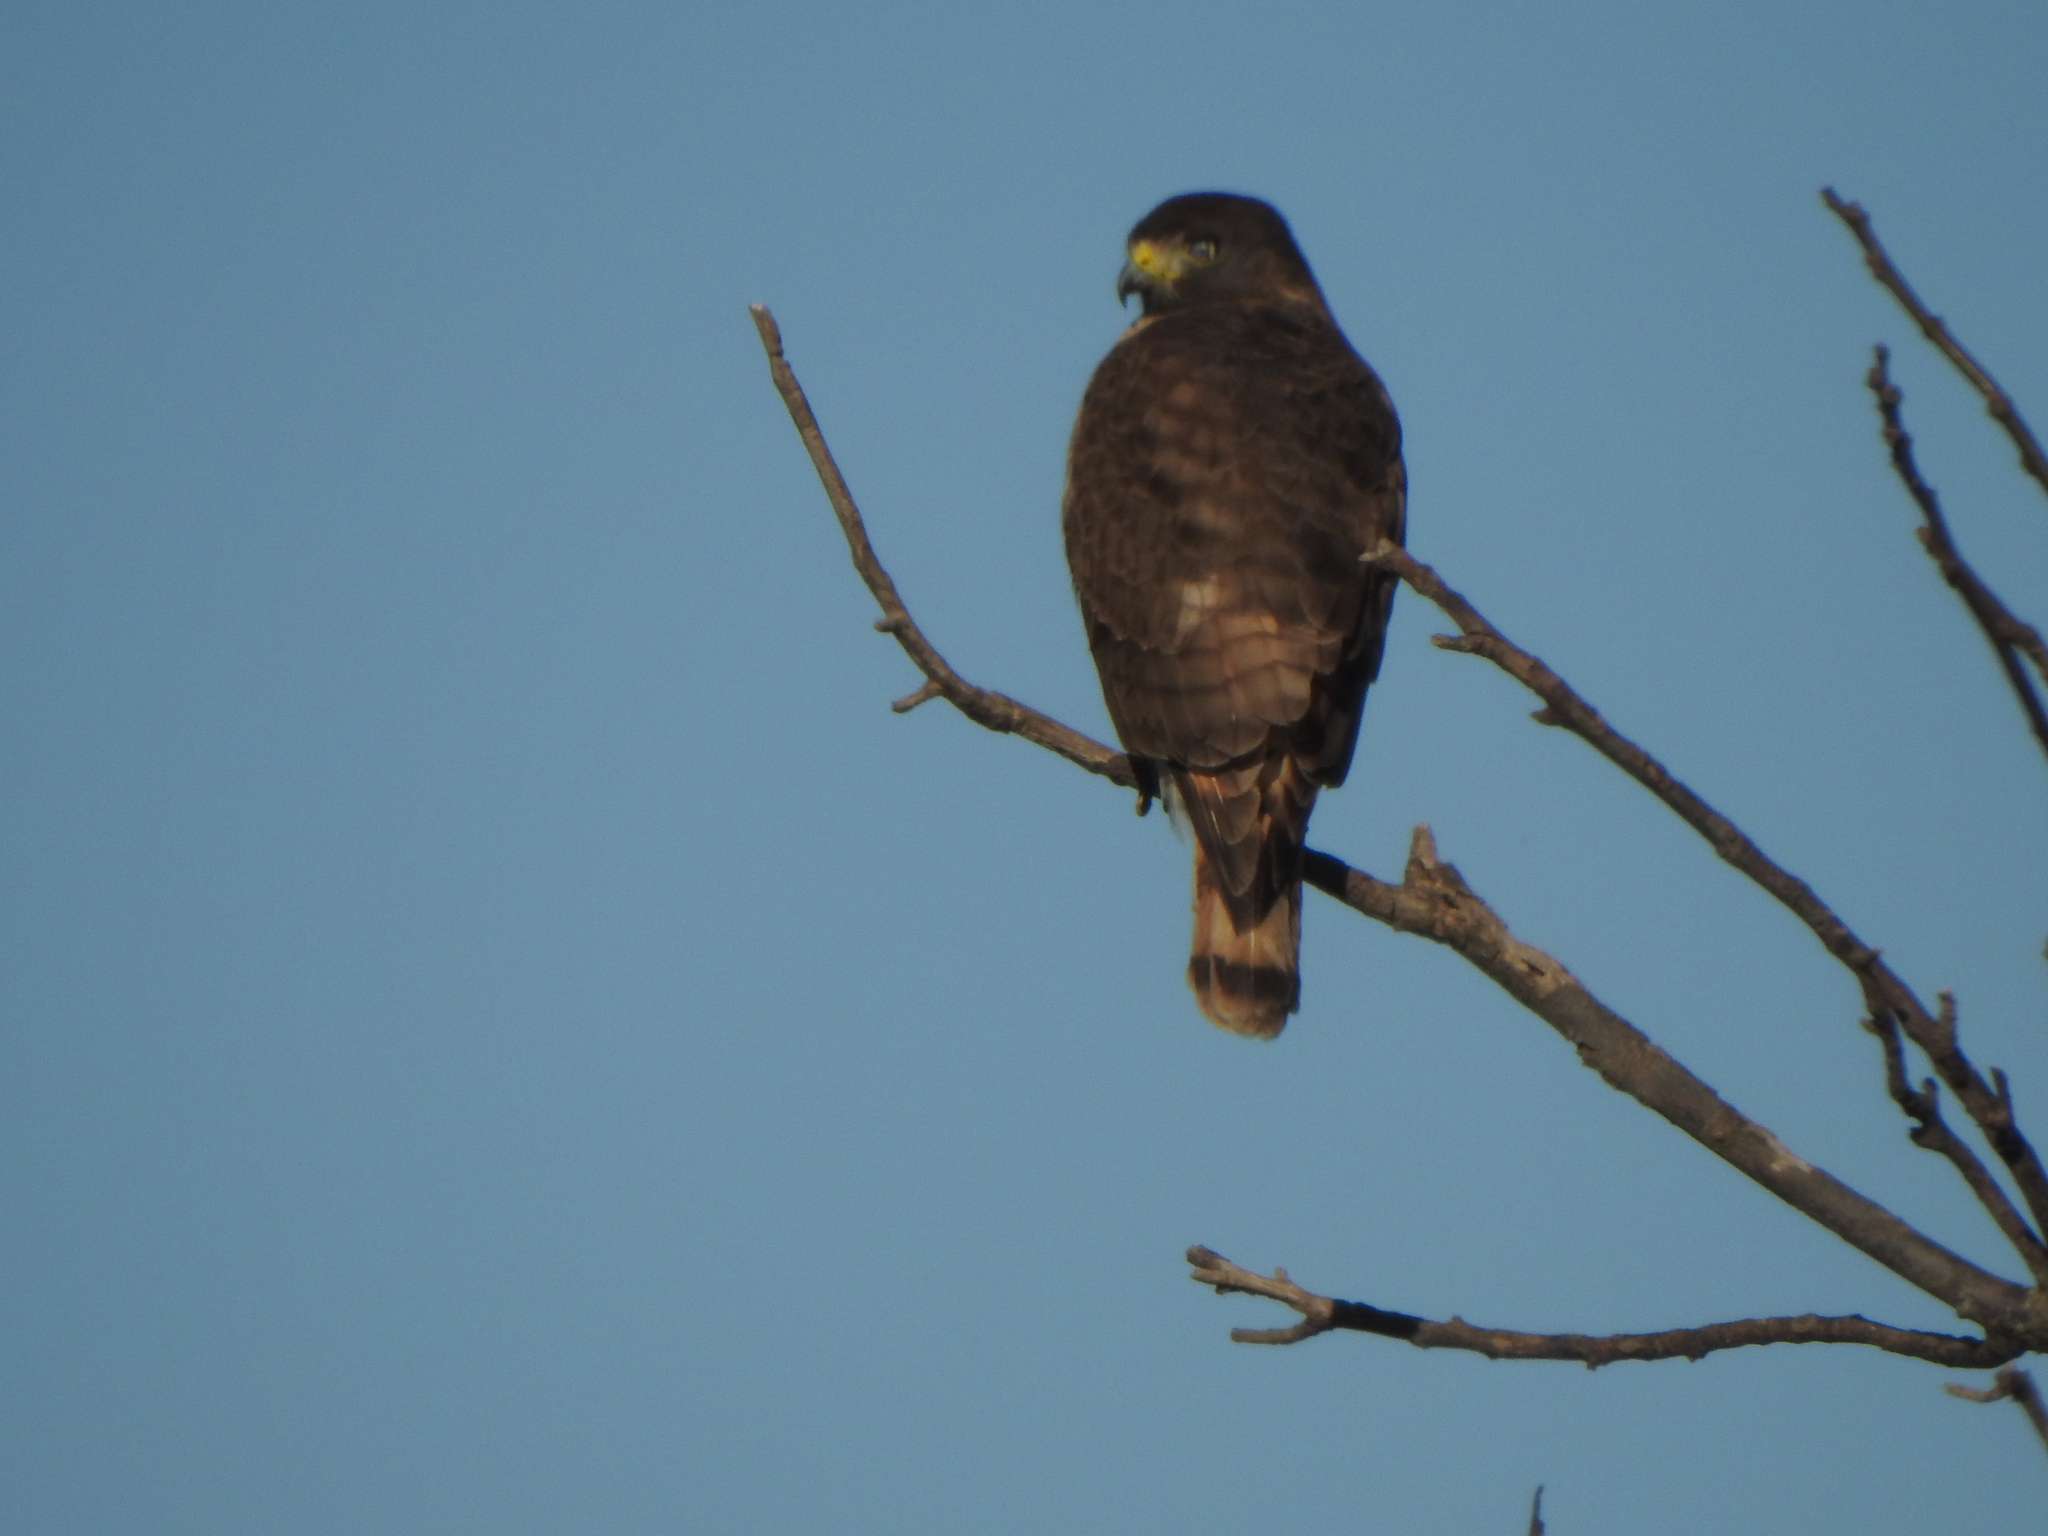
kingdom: Animalia
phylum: Chordata
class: Aves
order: Accipitriformes
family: Accipitridae
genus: Rupornis
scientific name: Rupornis magnirostris
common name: Roadside hawk
